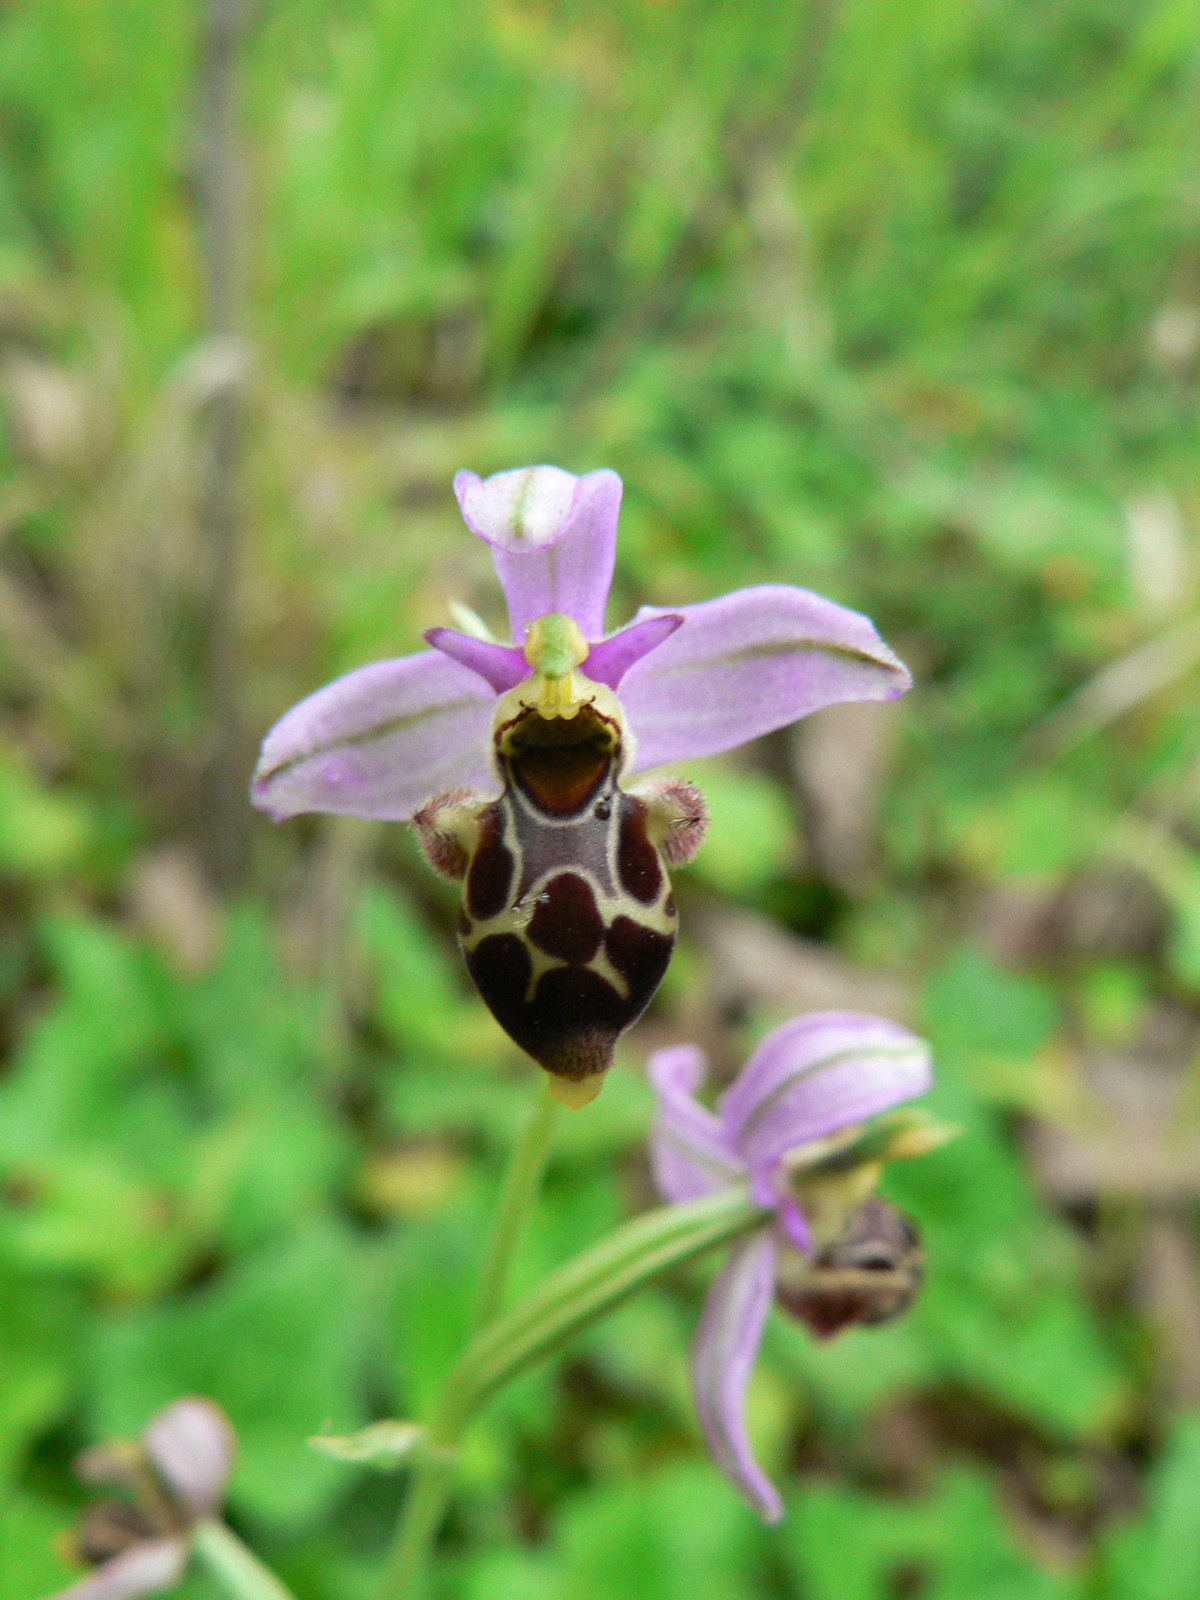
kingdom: Plantae
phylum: Tracheophyta
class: Liliopsida
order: Asparagales
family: Orchidaceae
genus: Ophrys
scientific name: Ophrys scolopax
